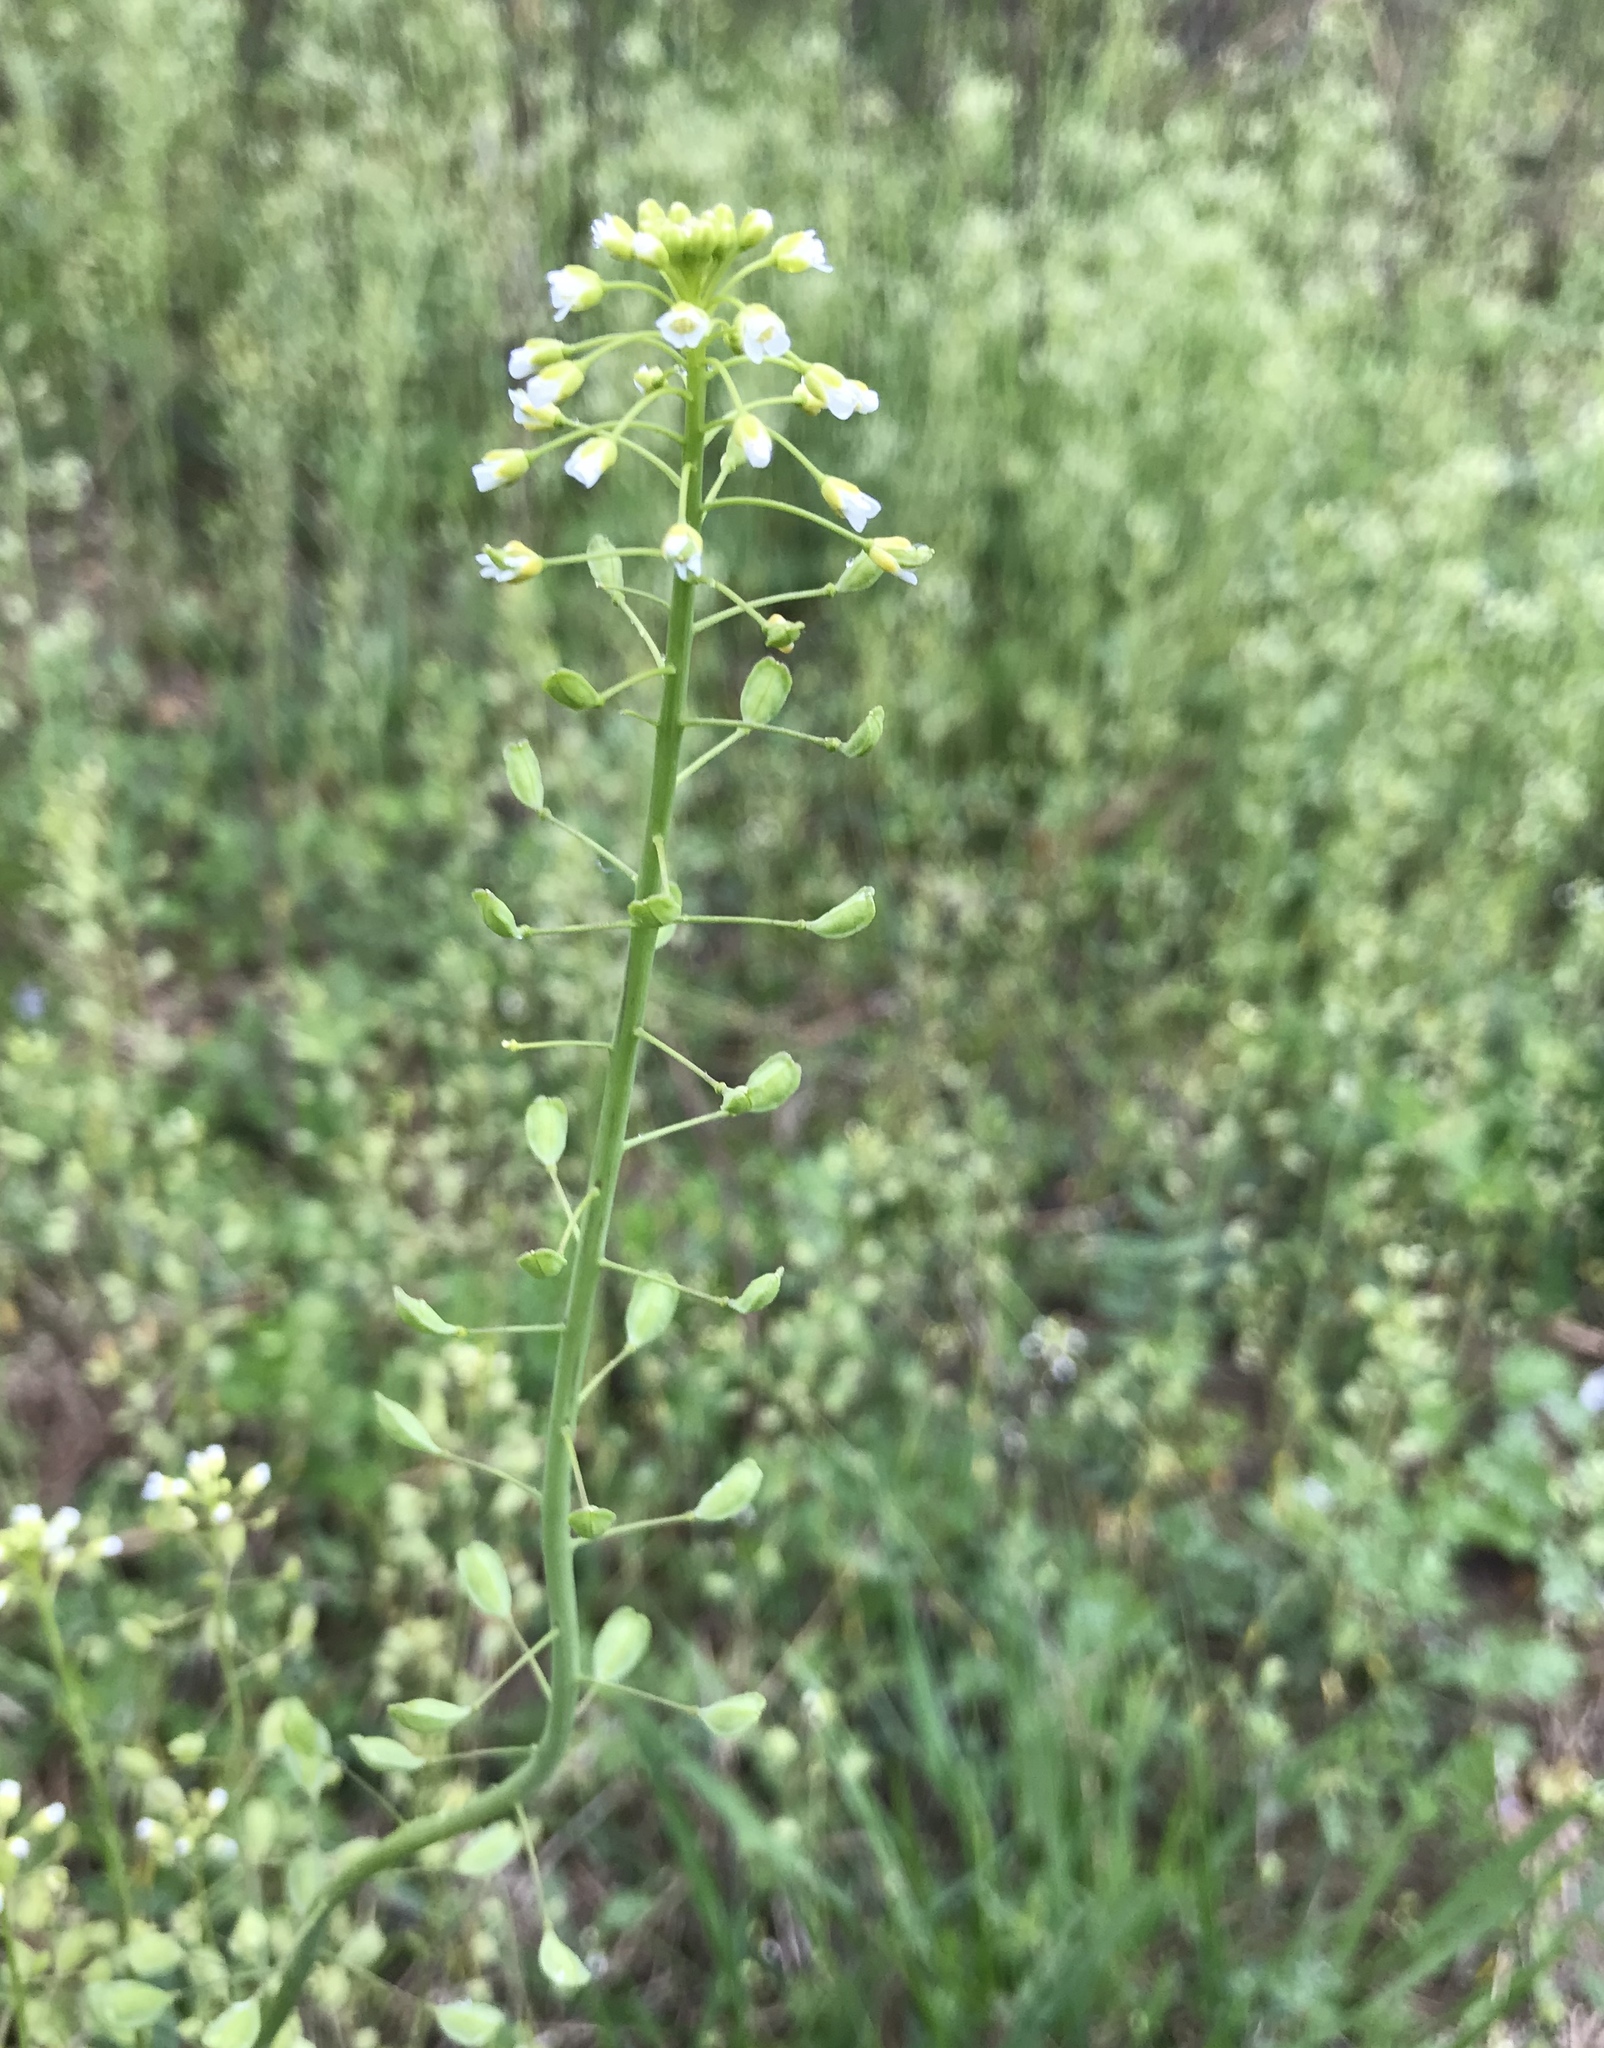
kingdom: Plantae
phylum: Tracheophyta
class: Magnoliopsida
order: Brassicales
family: Brassicaceae
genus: Mummenhoffia
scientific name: Mummenhoffia alliacea
